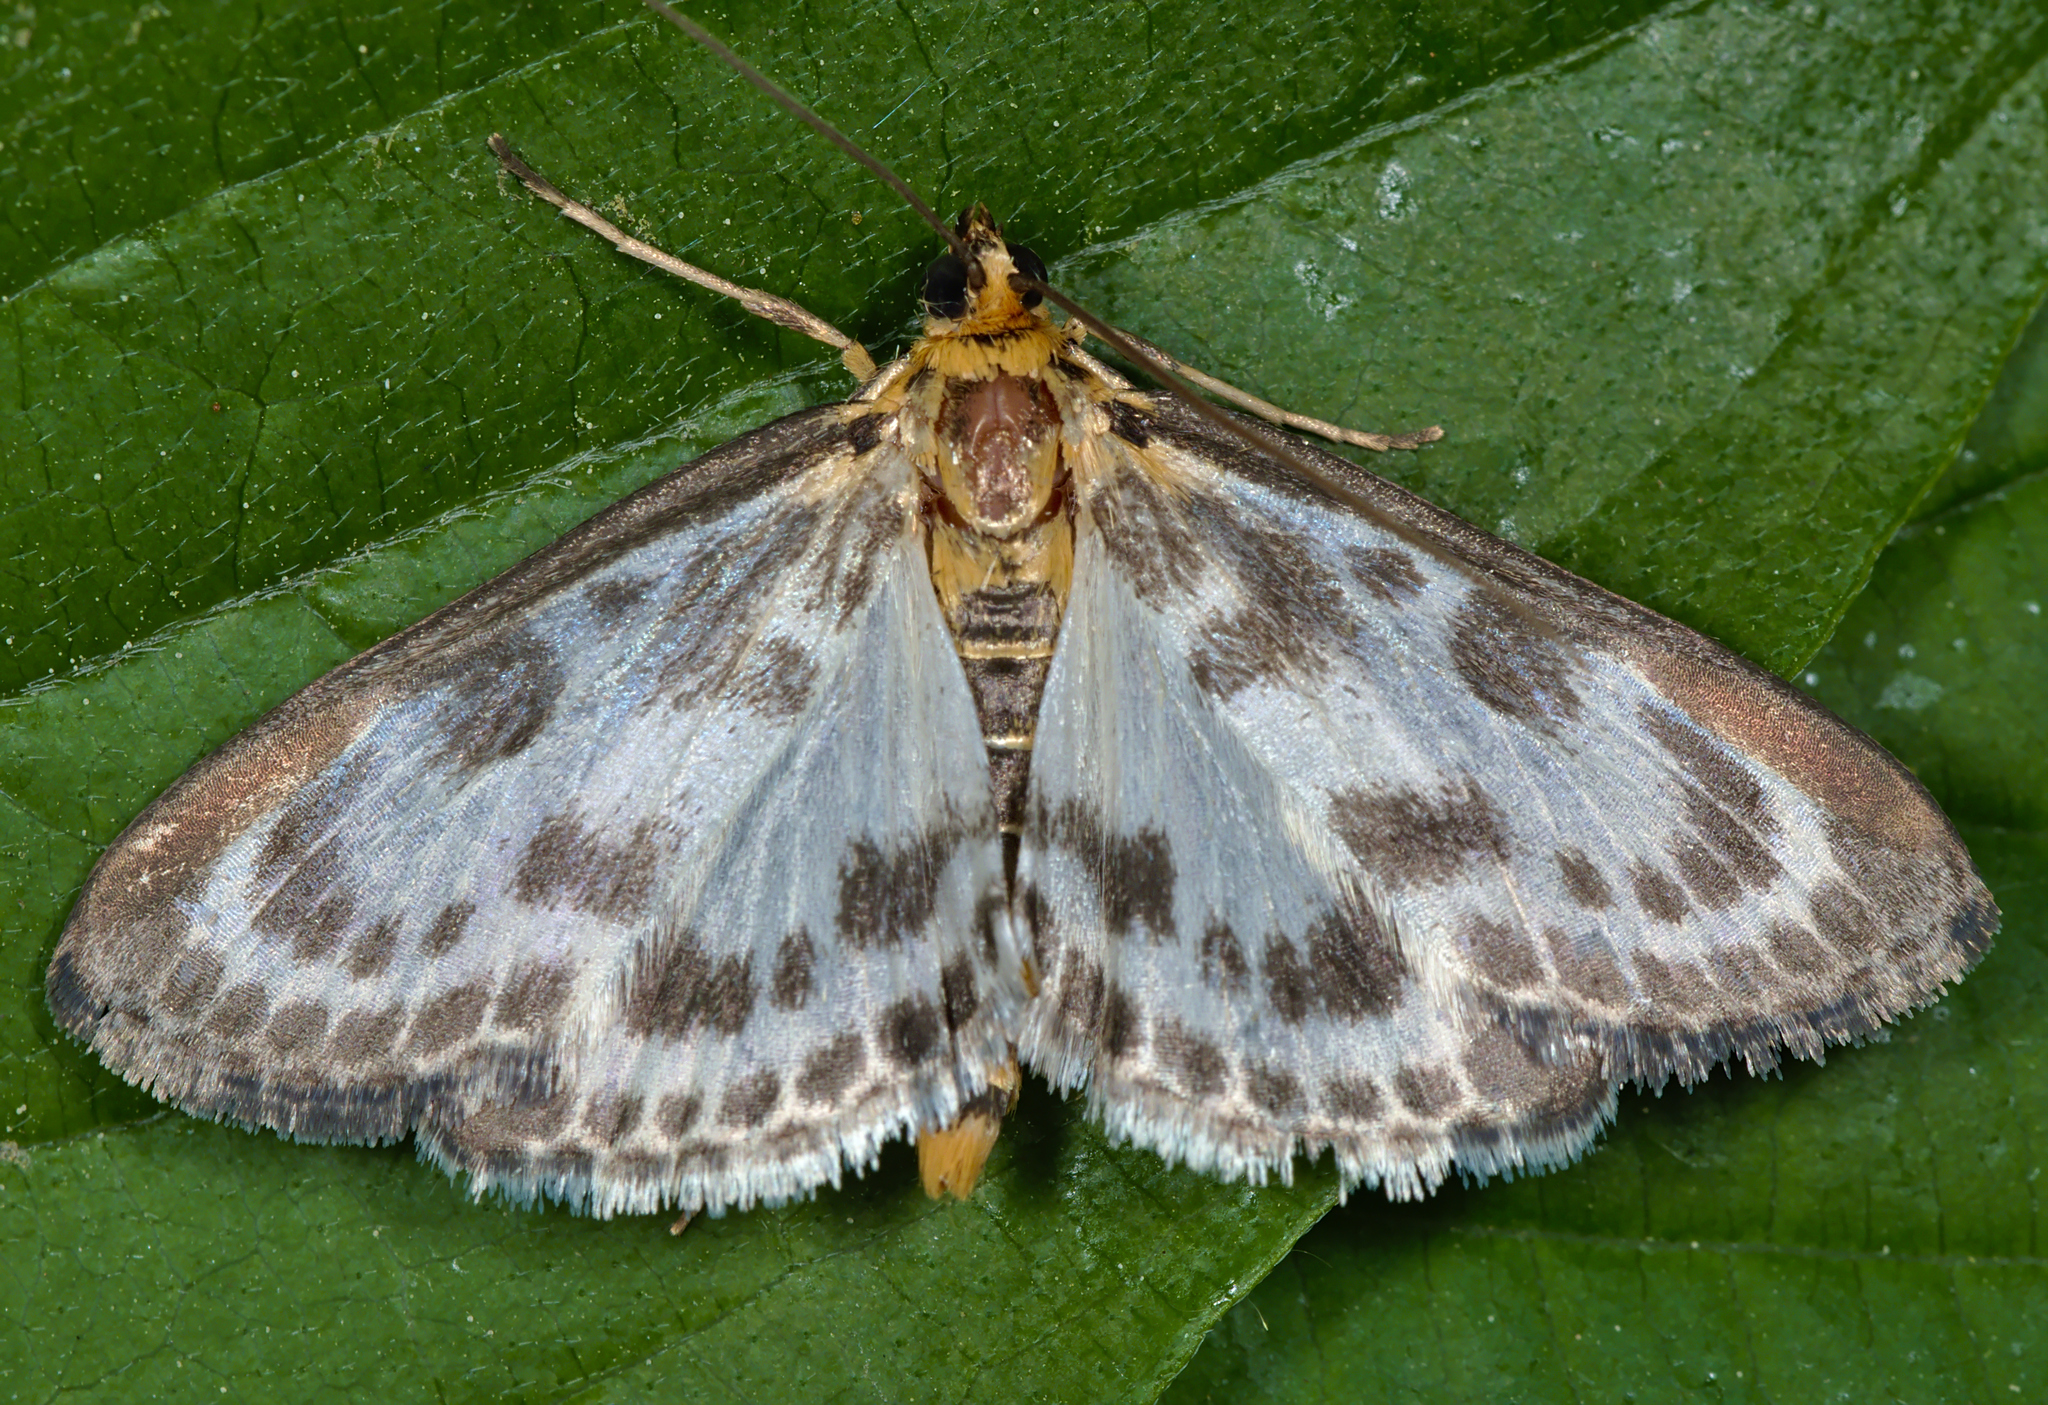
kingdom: Animalia
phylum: Arthropoda
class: Insecta
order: Lepidoptera
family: Crambidae
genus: Anania
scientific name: Anania hortulata
